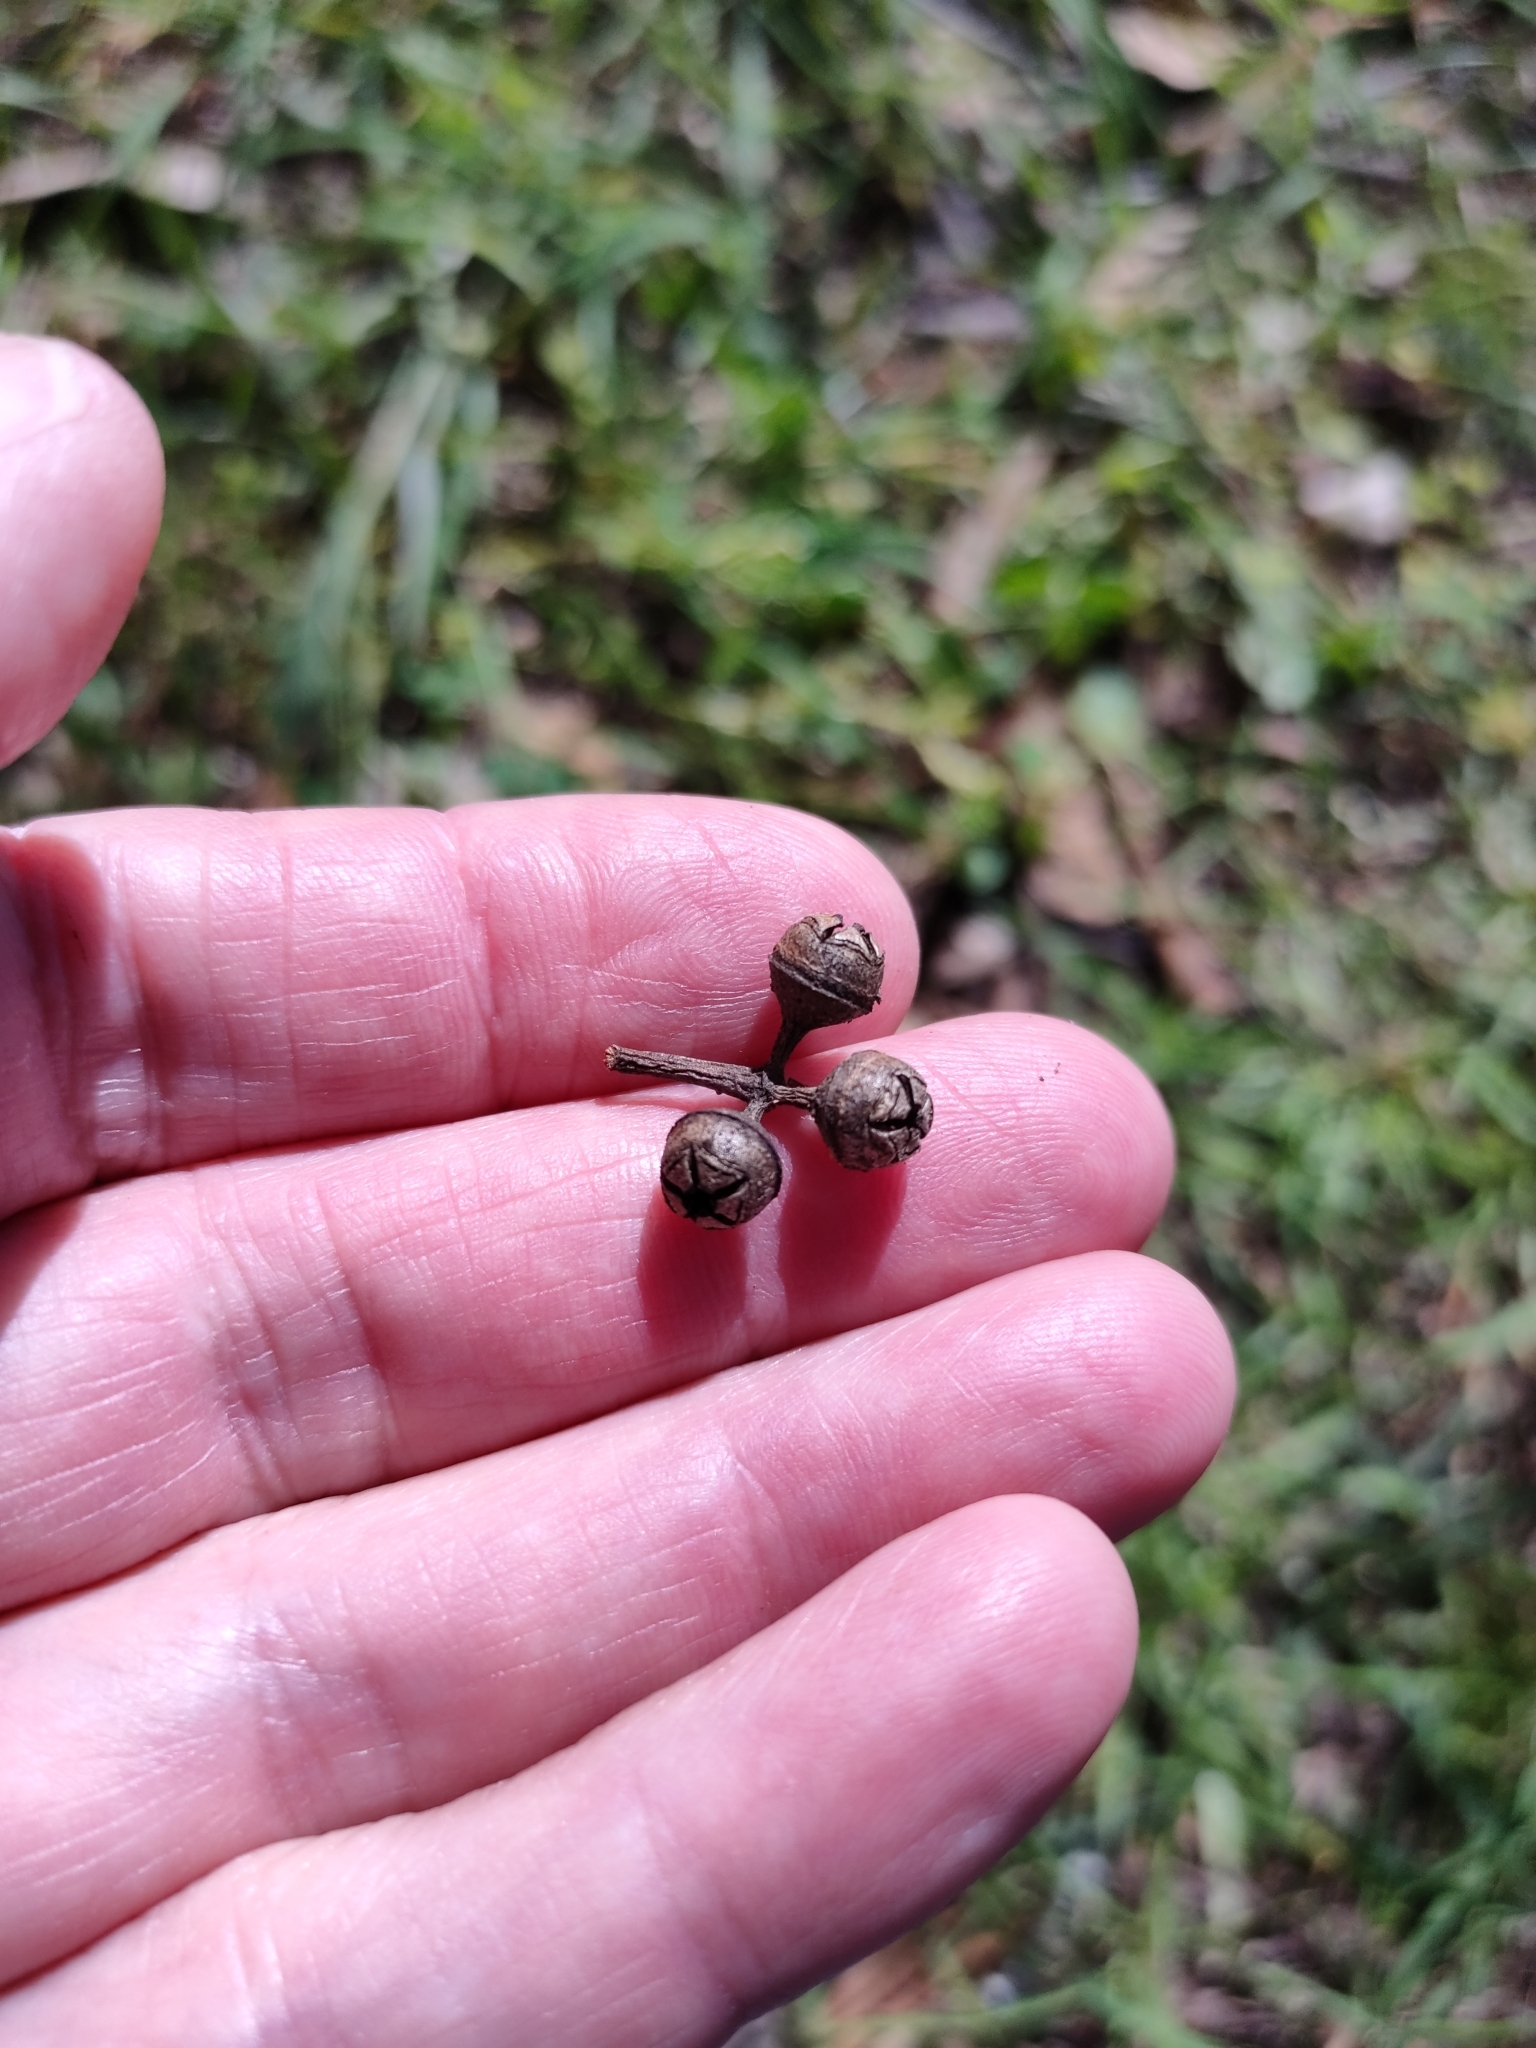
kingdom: Plantae
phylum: Tracheophyta
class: Magnoliopsida
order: Myrtales
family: Myrtaceae
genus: Eucalyptus
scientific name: Eucalyptus tereticornis
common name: Forest redgum
